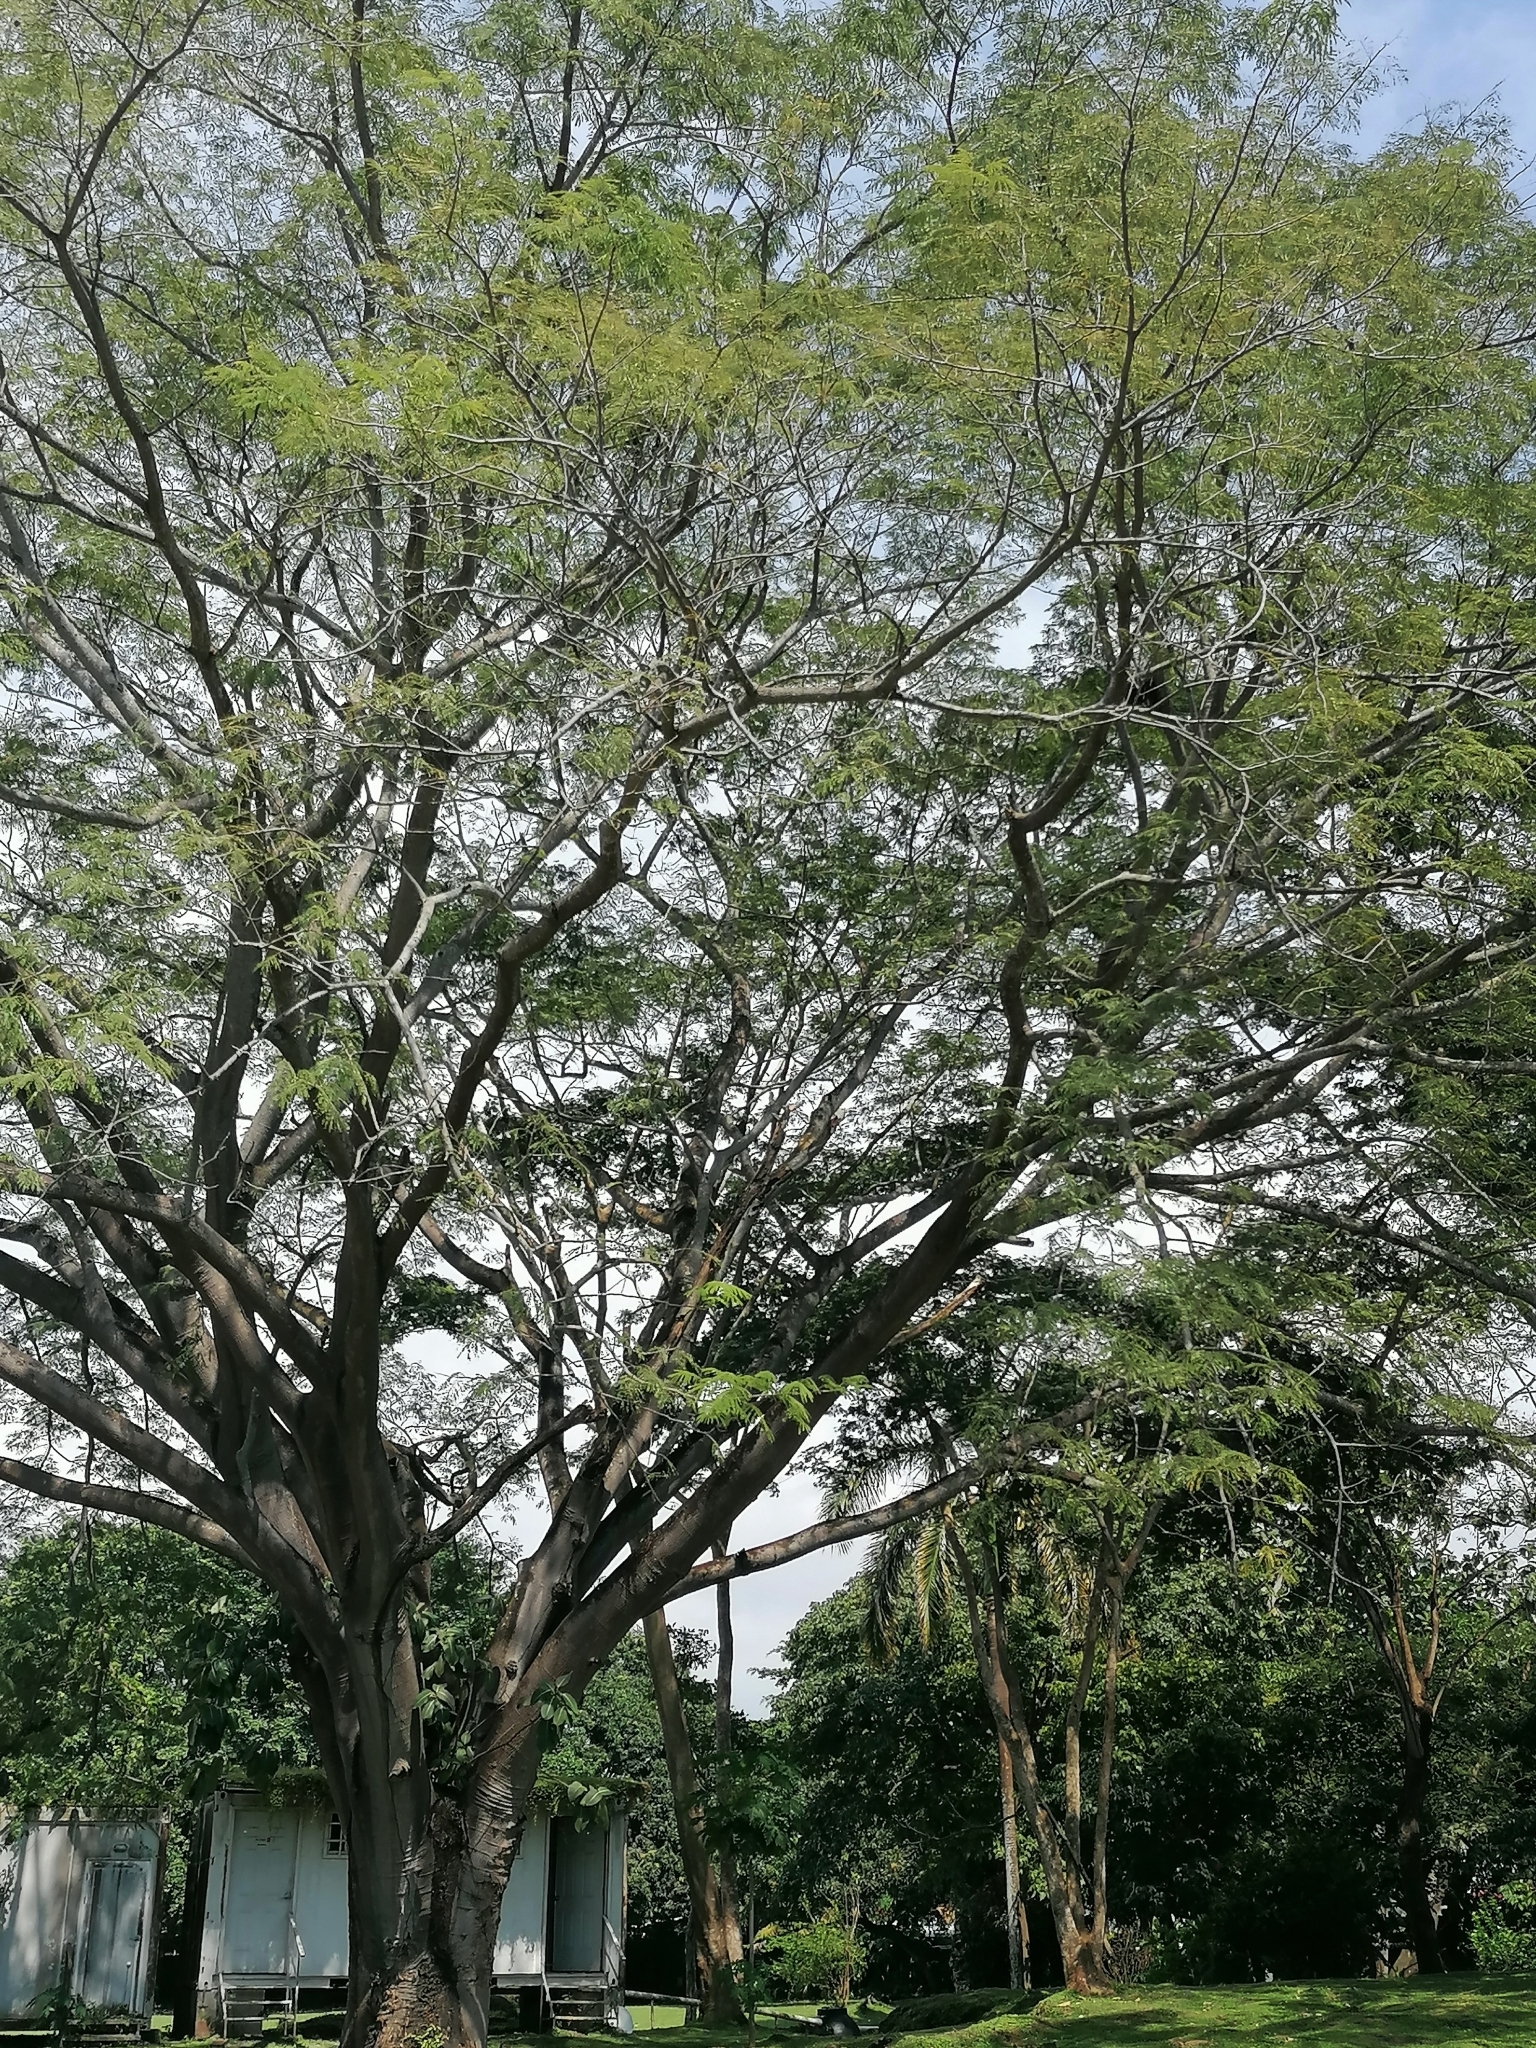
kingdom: Plantae
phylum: Tracheophyta
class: Magnoliopsida
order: Fabales
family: Fabaceae
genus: Enterolobium
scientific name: Enterolobium cyclocarpum
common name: Ear tree
